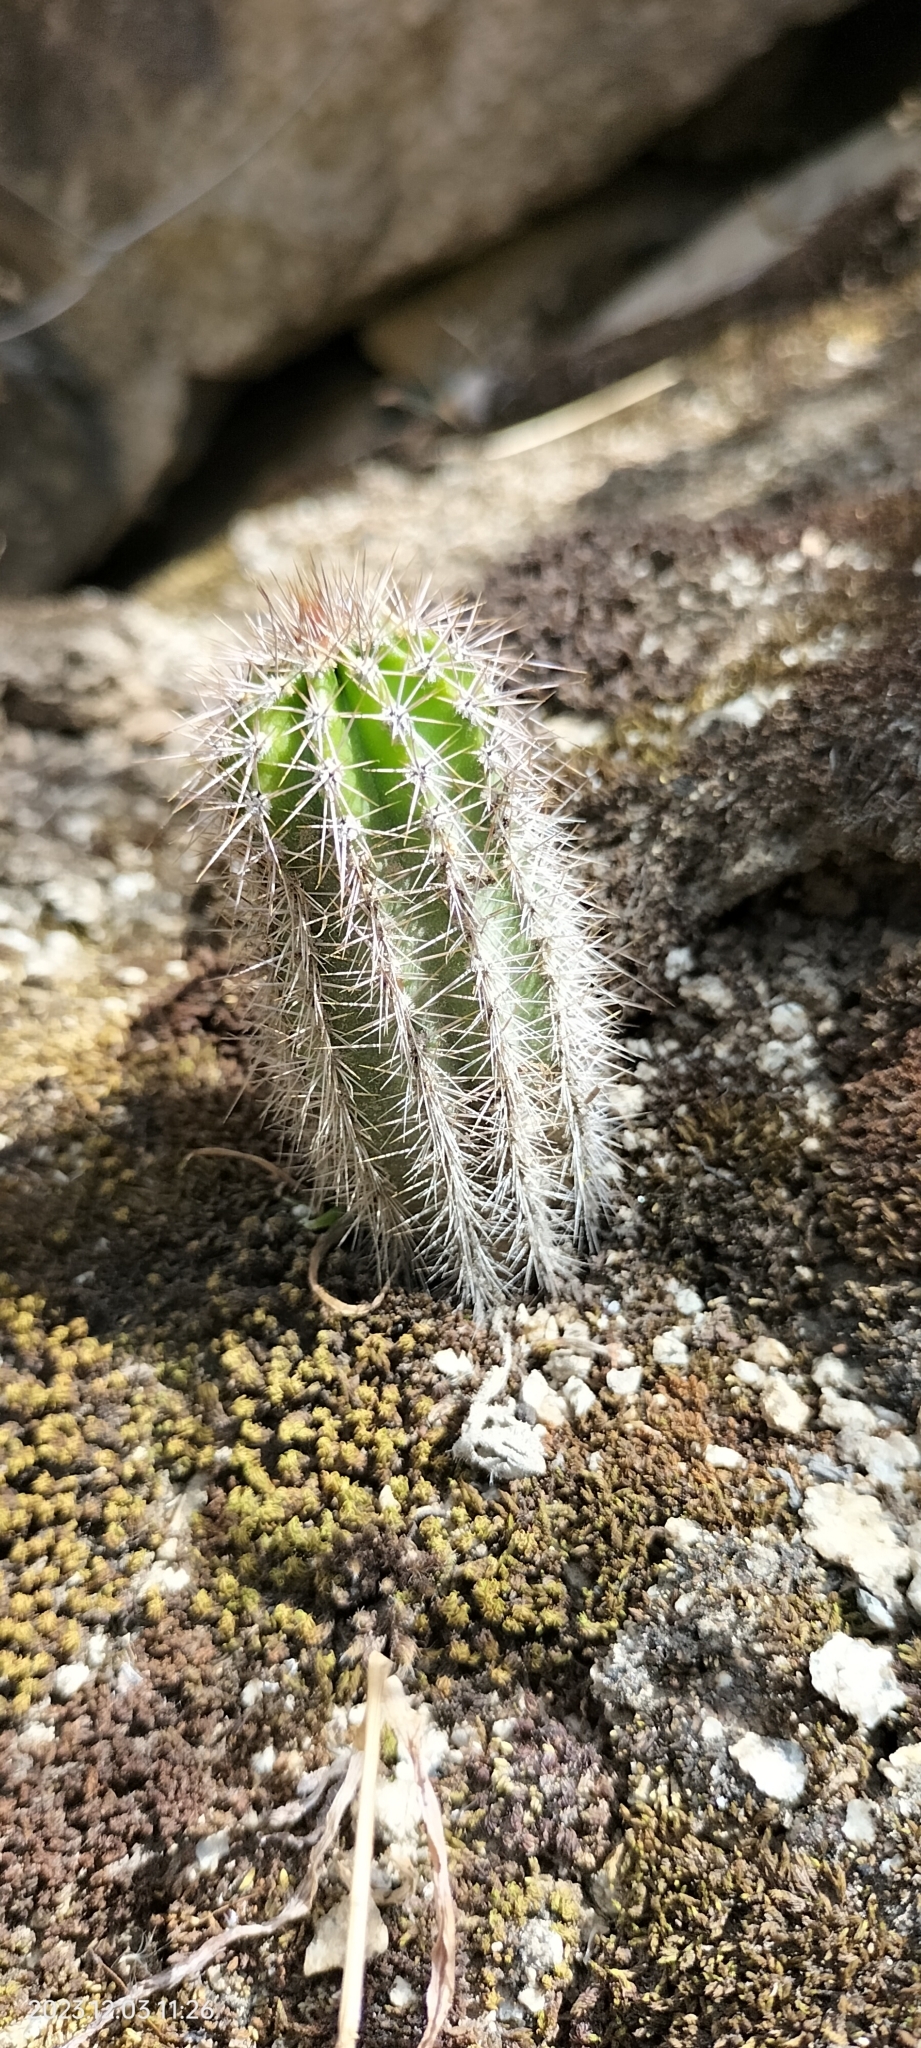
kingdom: Plantae
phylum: Tracheophyta
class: Magnoliopsida
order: Caryophyllales
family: Cactaceae
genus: Armatocereus
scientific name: Armatocereus laetus
